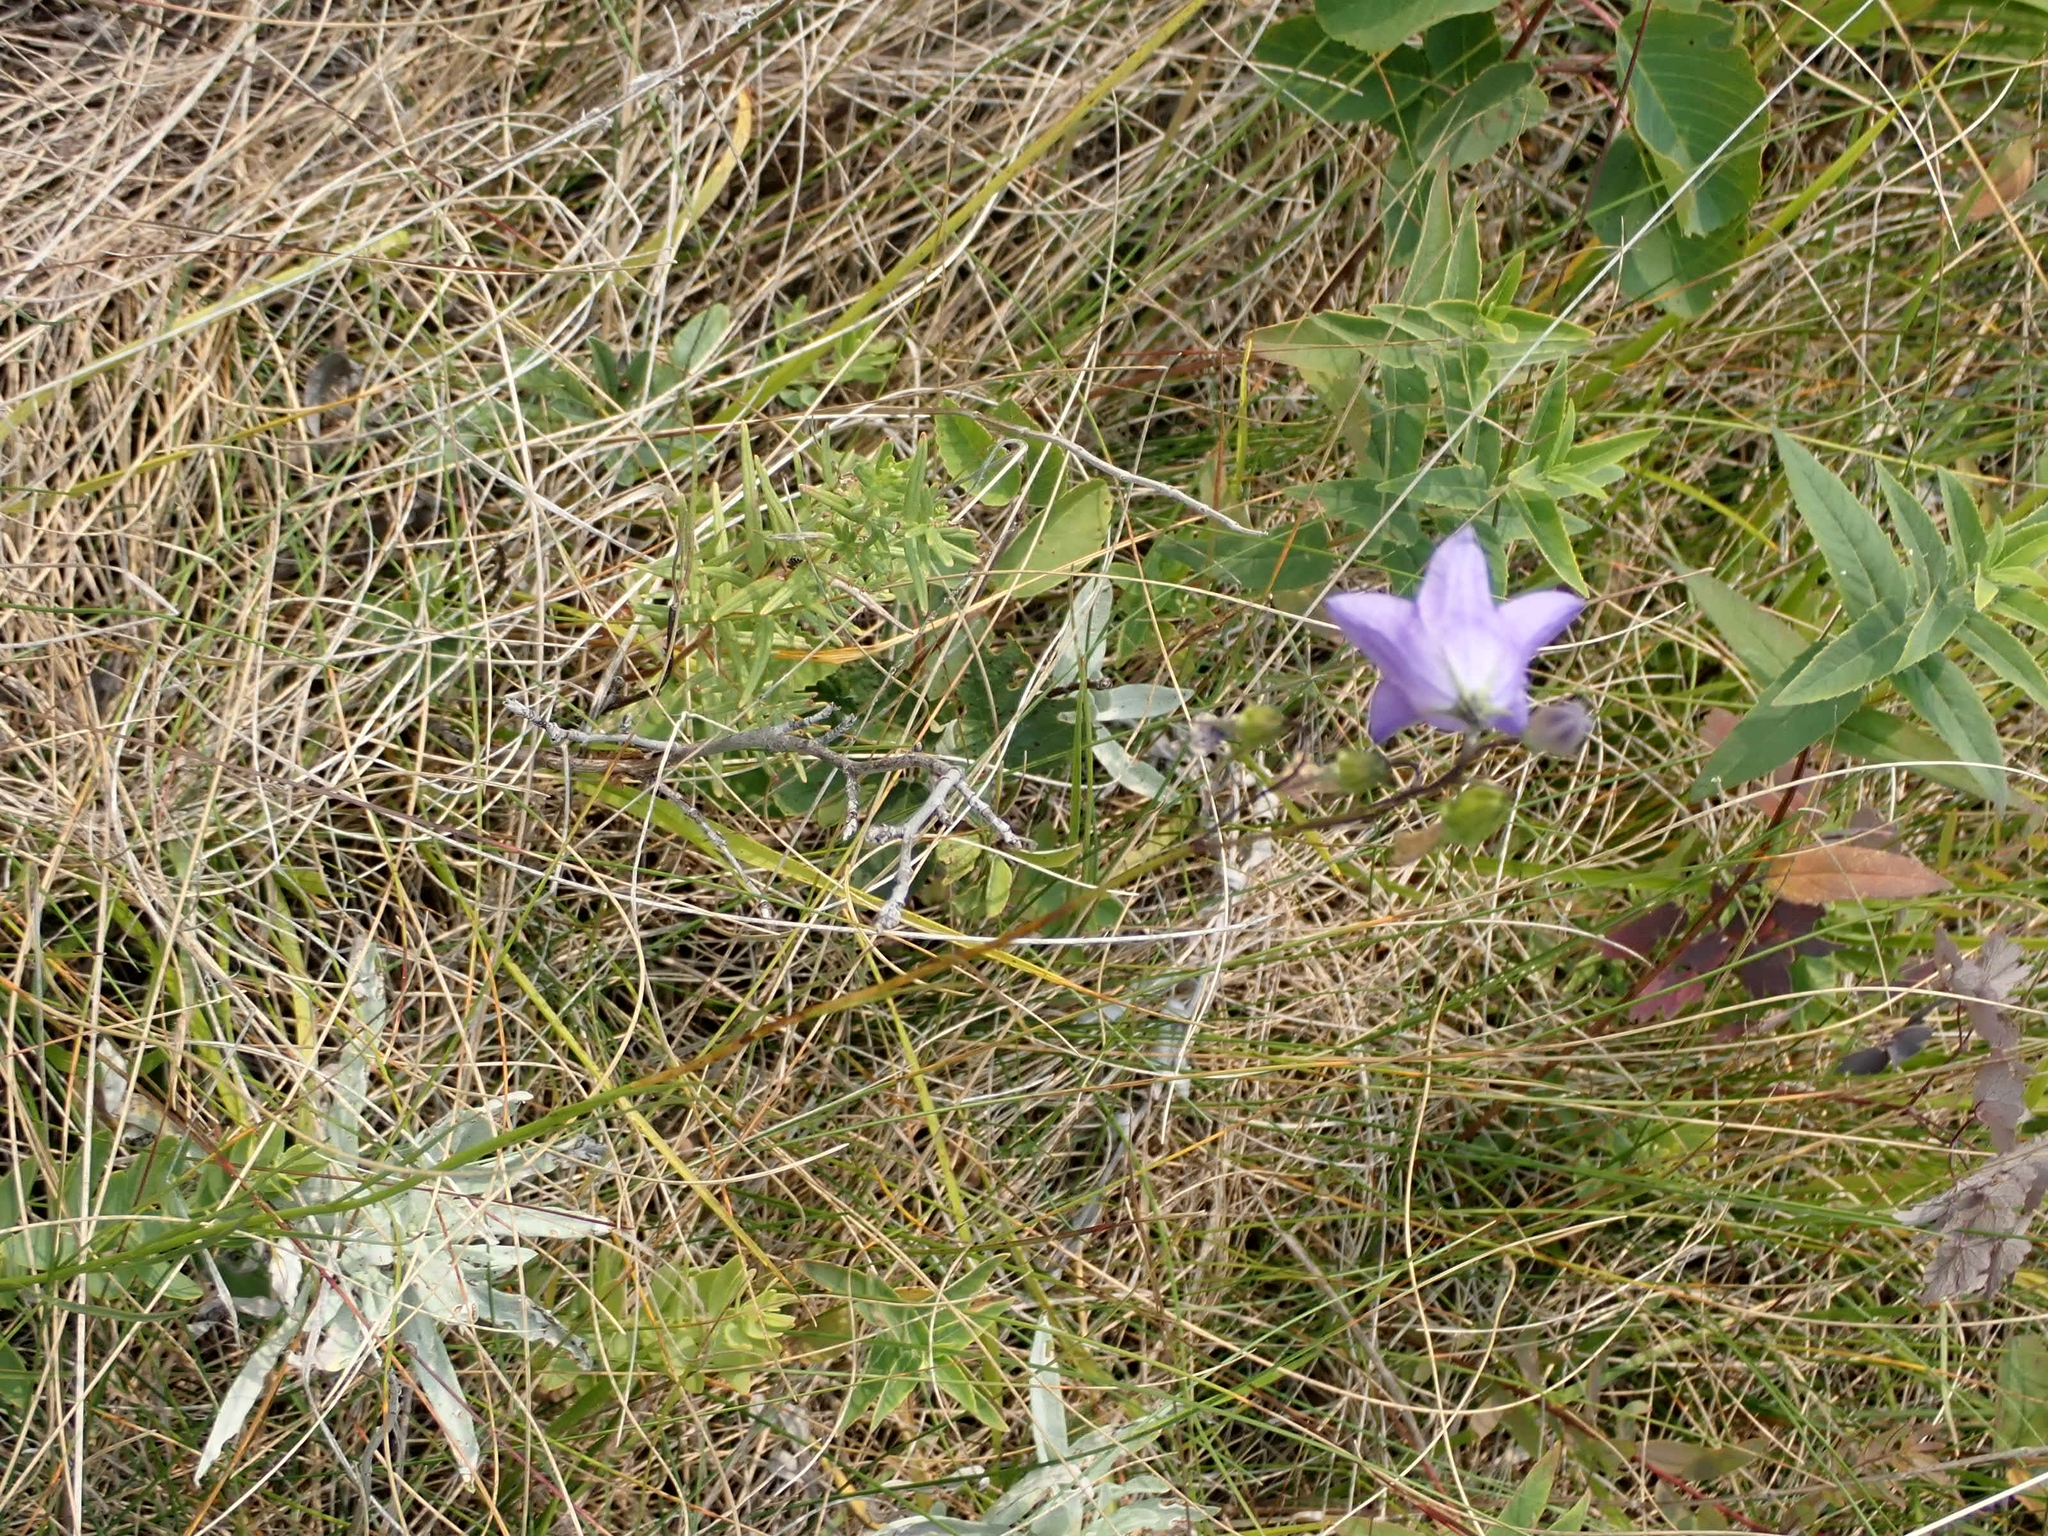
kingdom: Plantae
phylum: Tracheophyta
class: Magnoliopsida
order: Asterales
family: Campanulaceae
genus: Campanula
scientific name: Campanula petiolata
